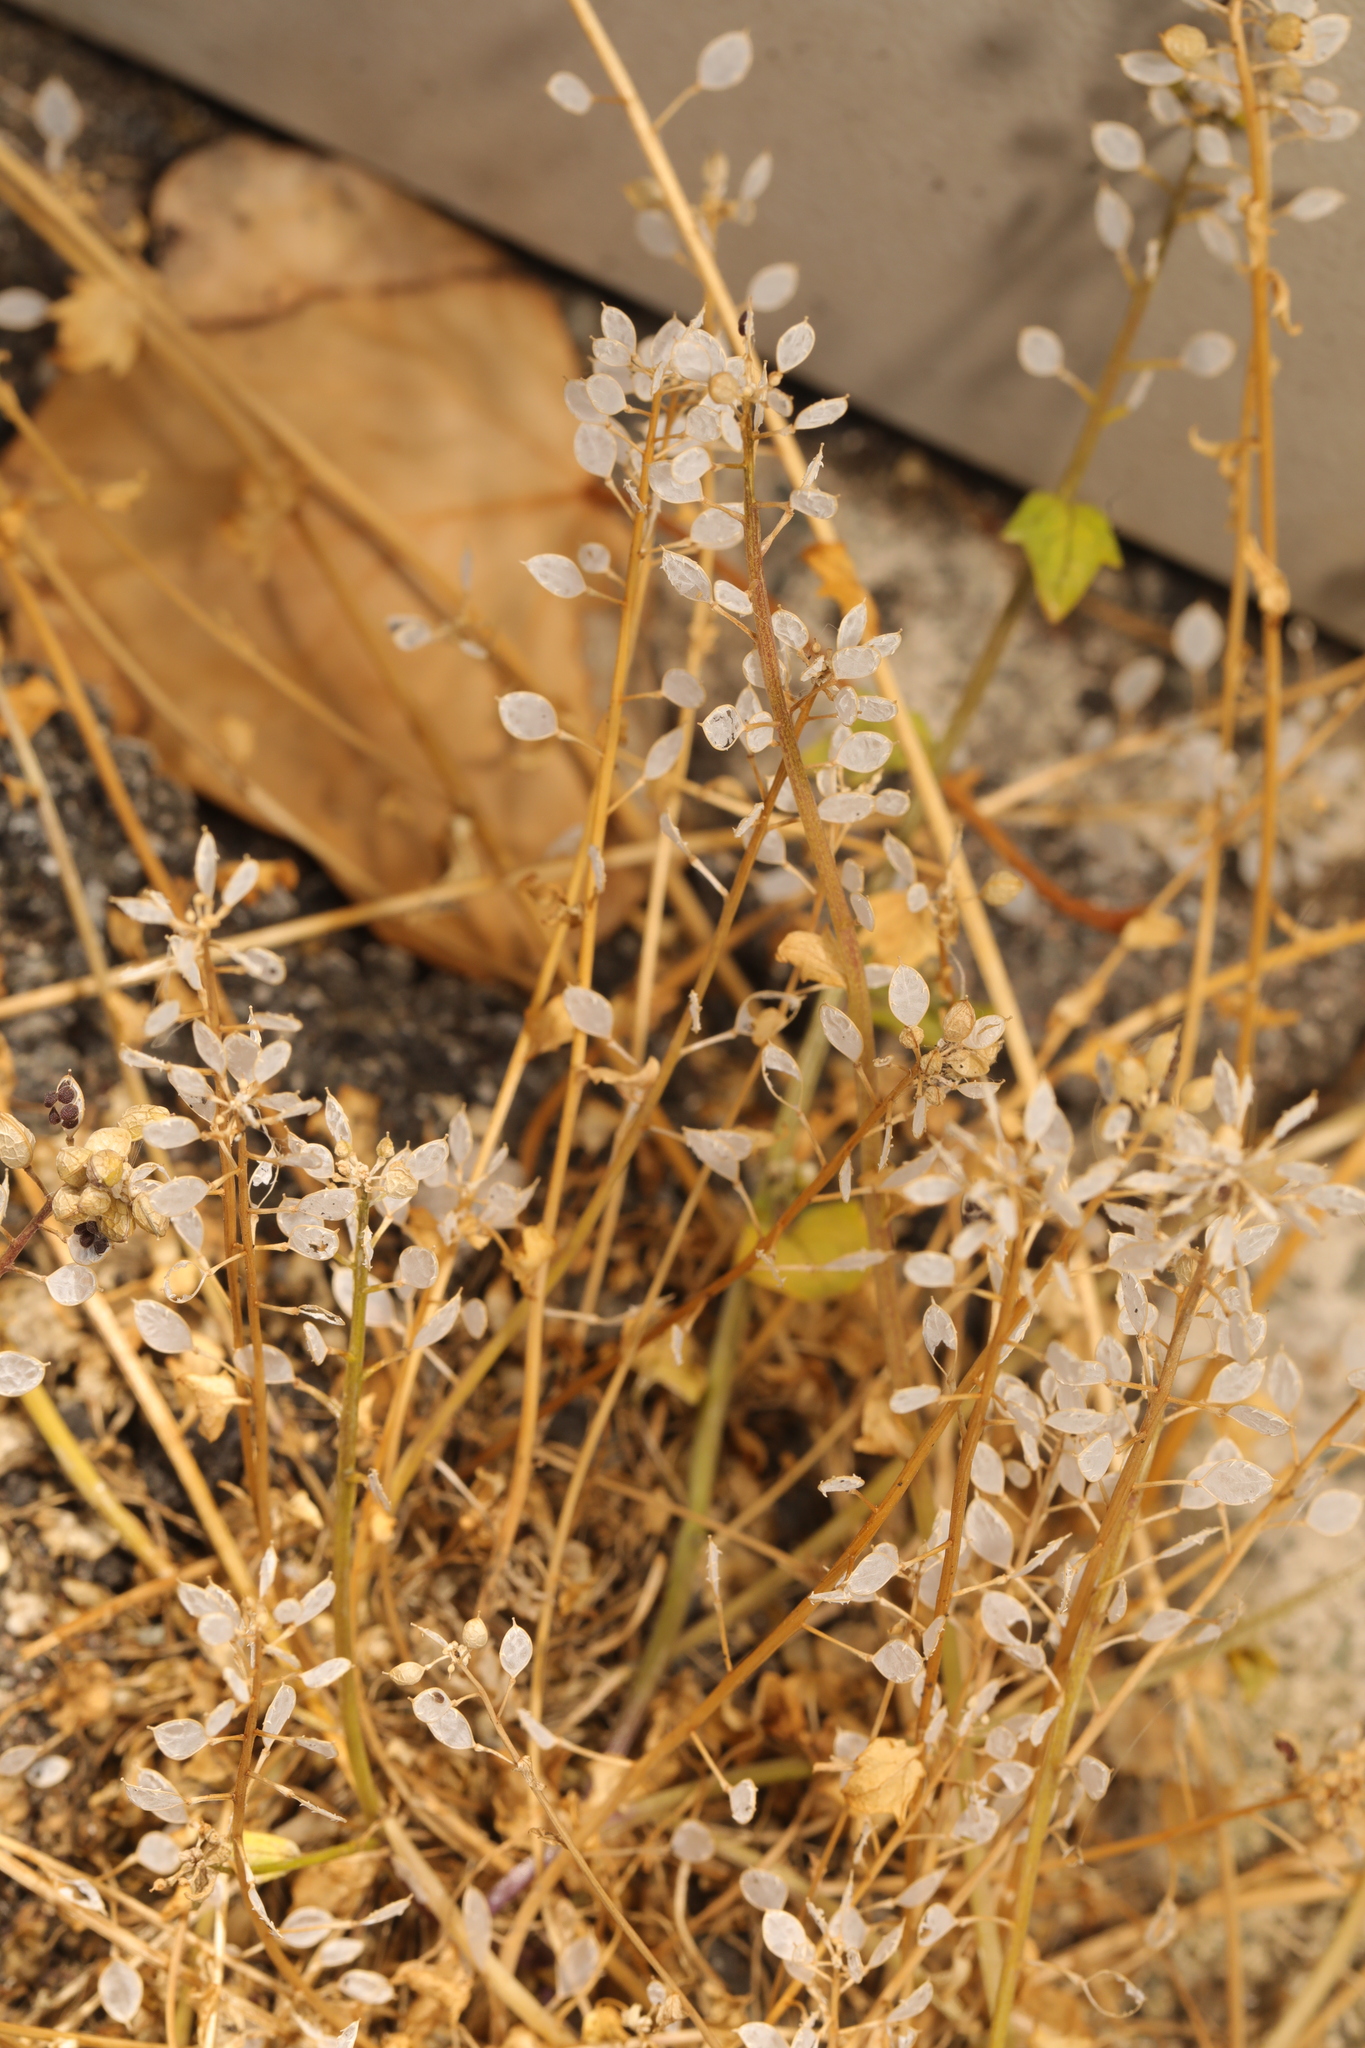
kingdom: Plantae
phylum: Tracheophyta
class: Magnoliopsida
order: Brassicales
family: Brassicaceae
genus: Cochlearia
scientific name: Cochlearia danica
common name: Early scurvygrass
